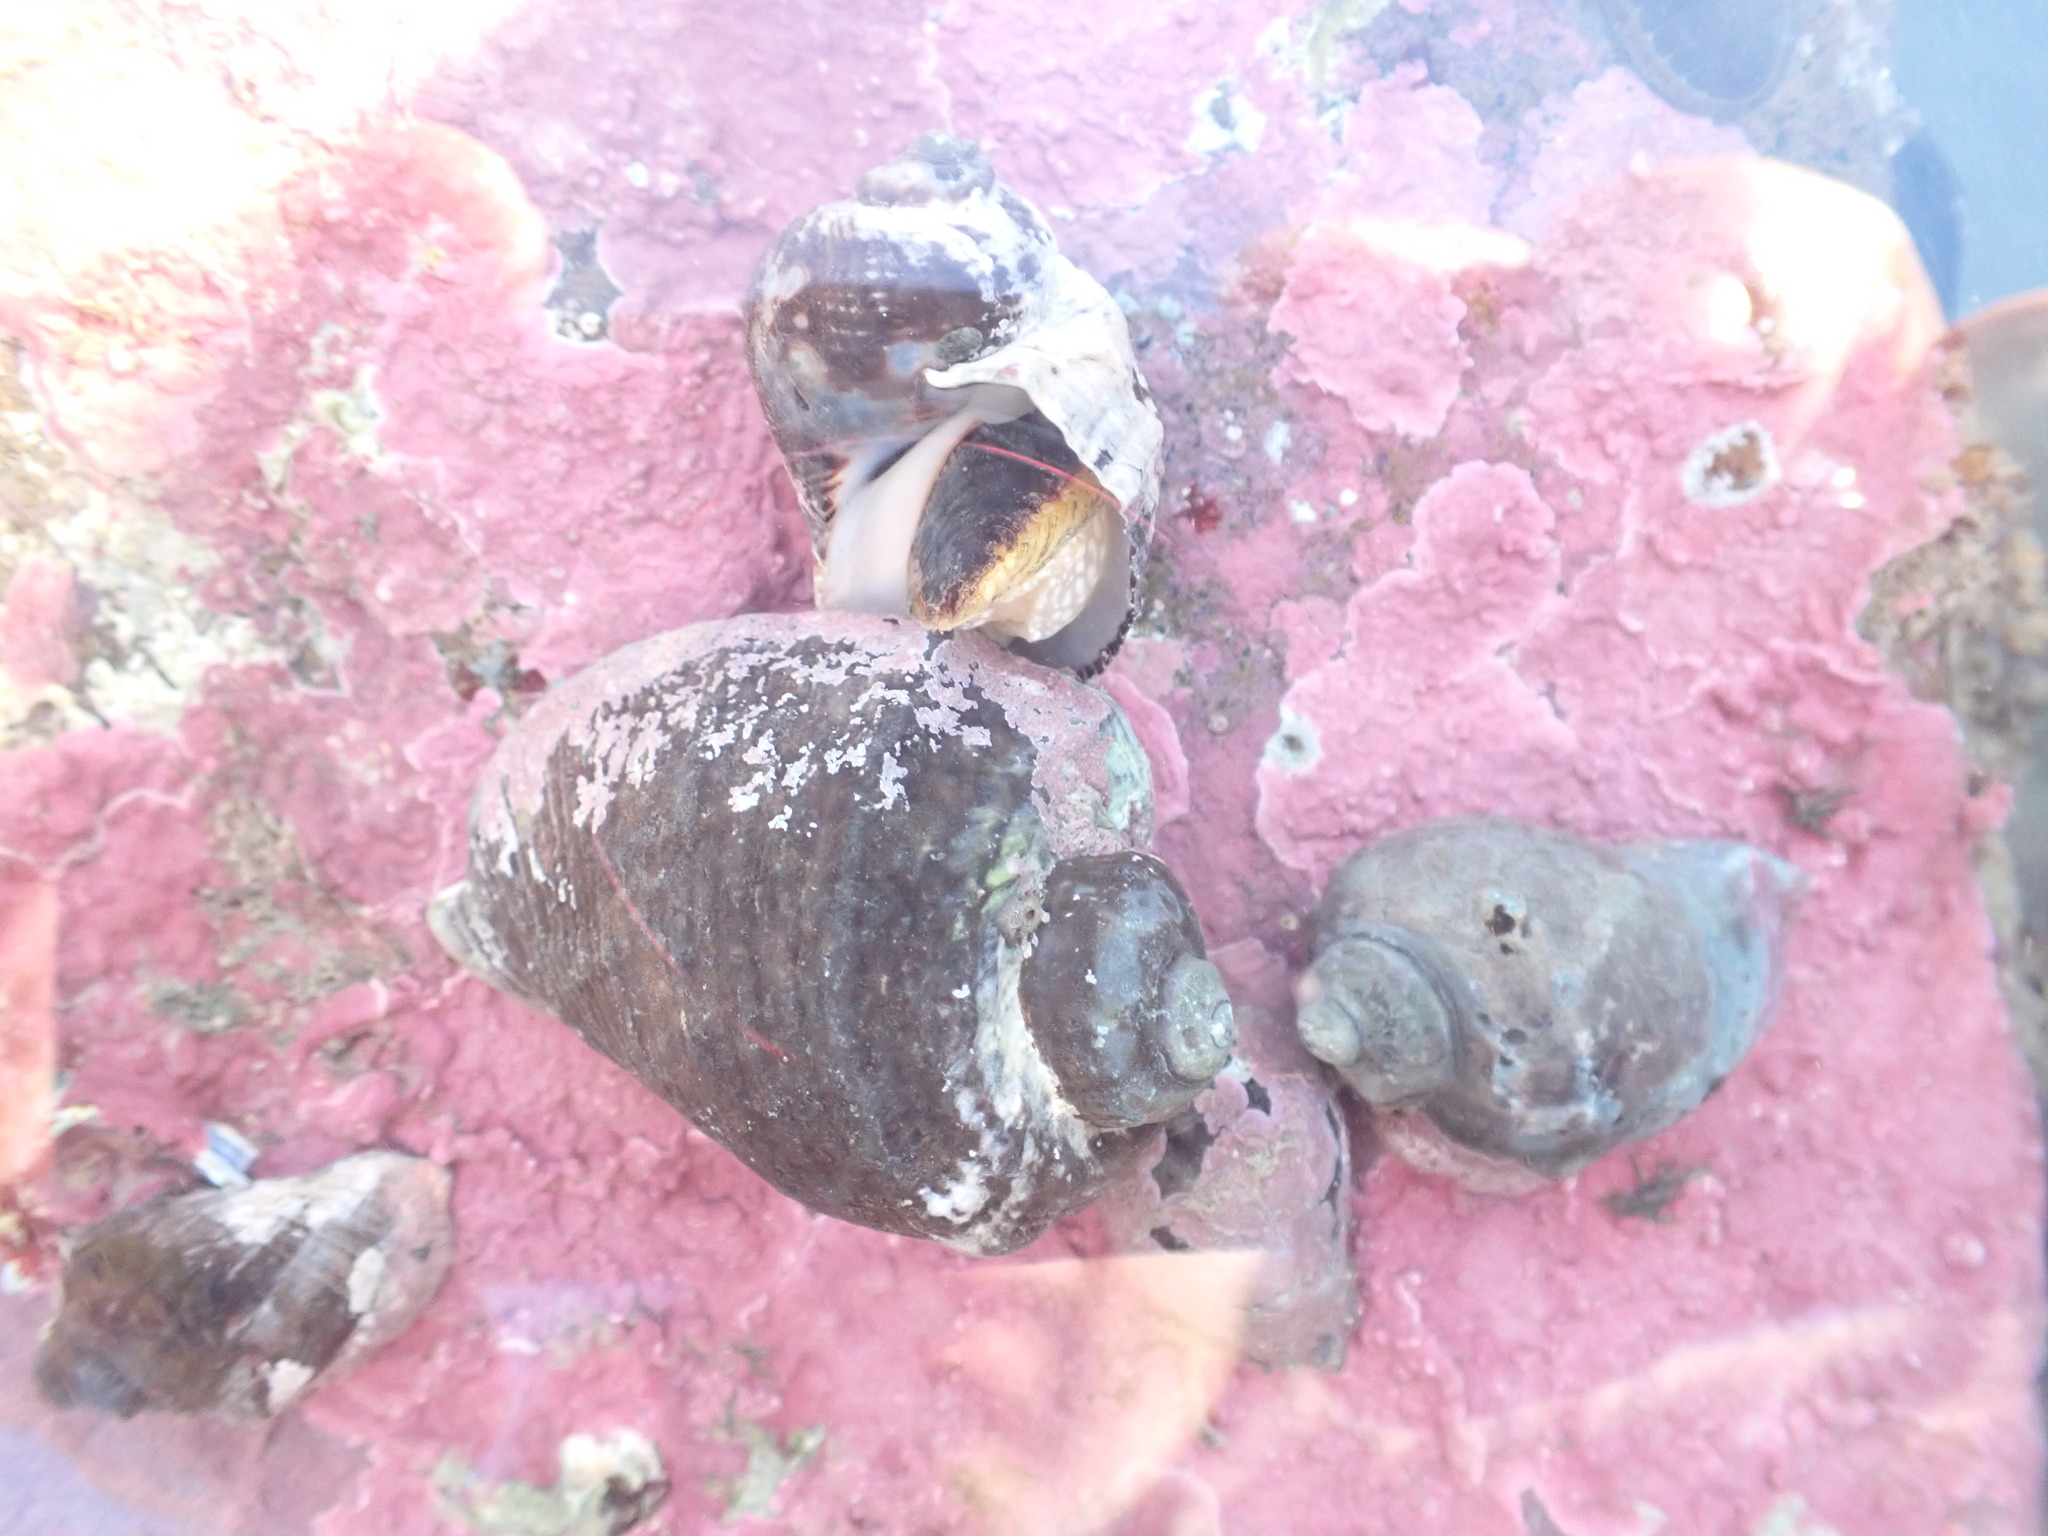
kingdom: Animalia
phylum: Mollusca
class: Gastropoda
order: Neogastropoda
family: Muricidae
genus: Haustrum
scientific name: Haustrum haustorium
